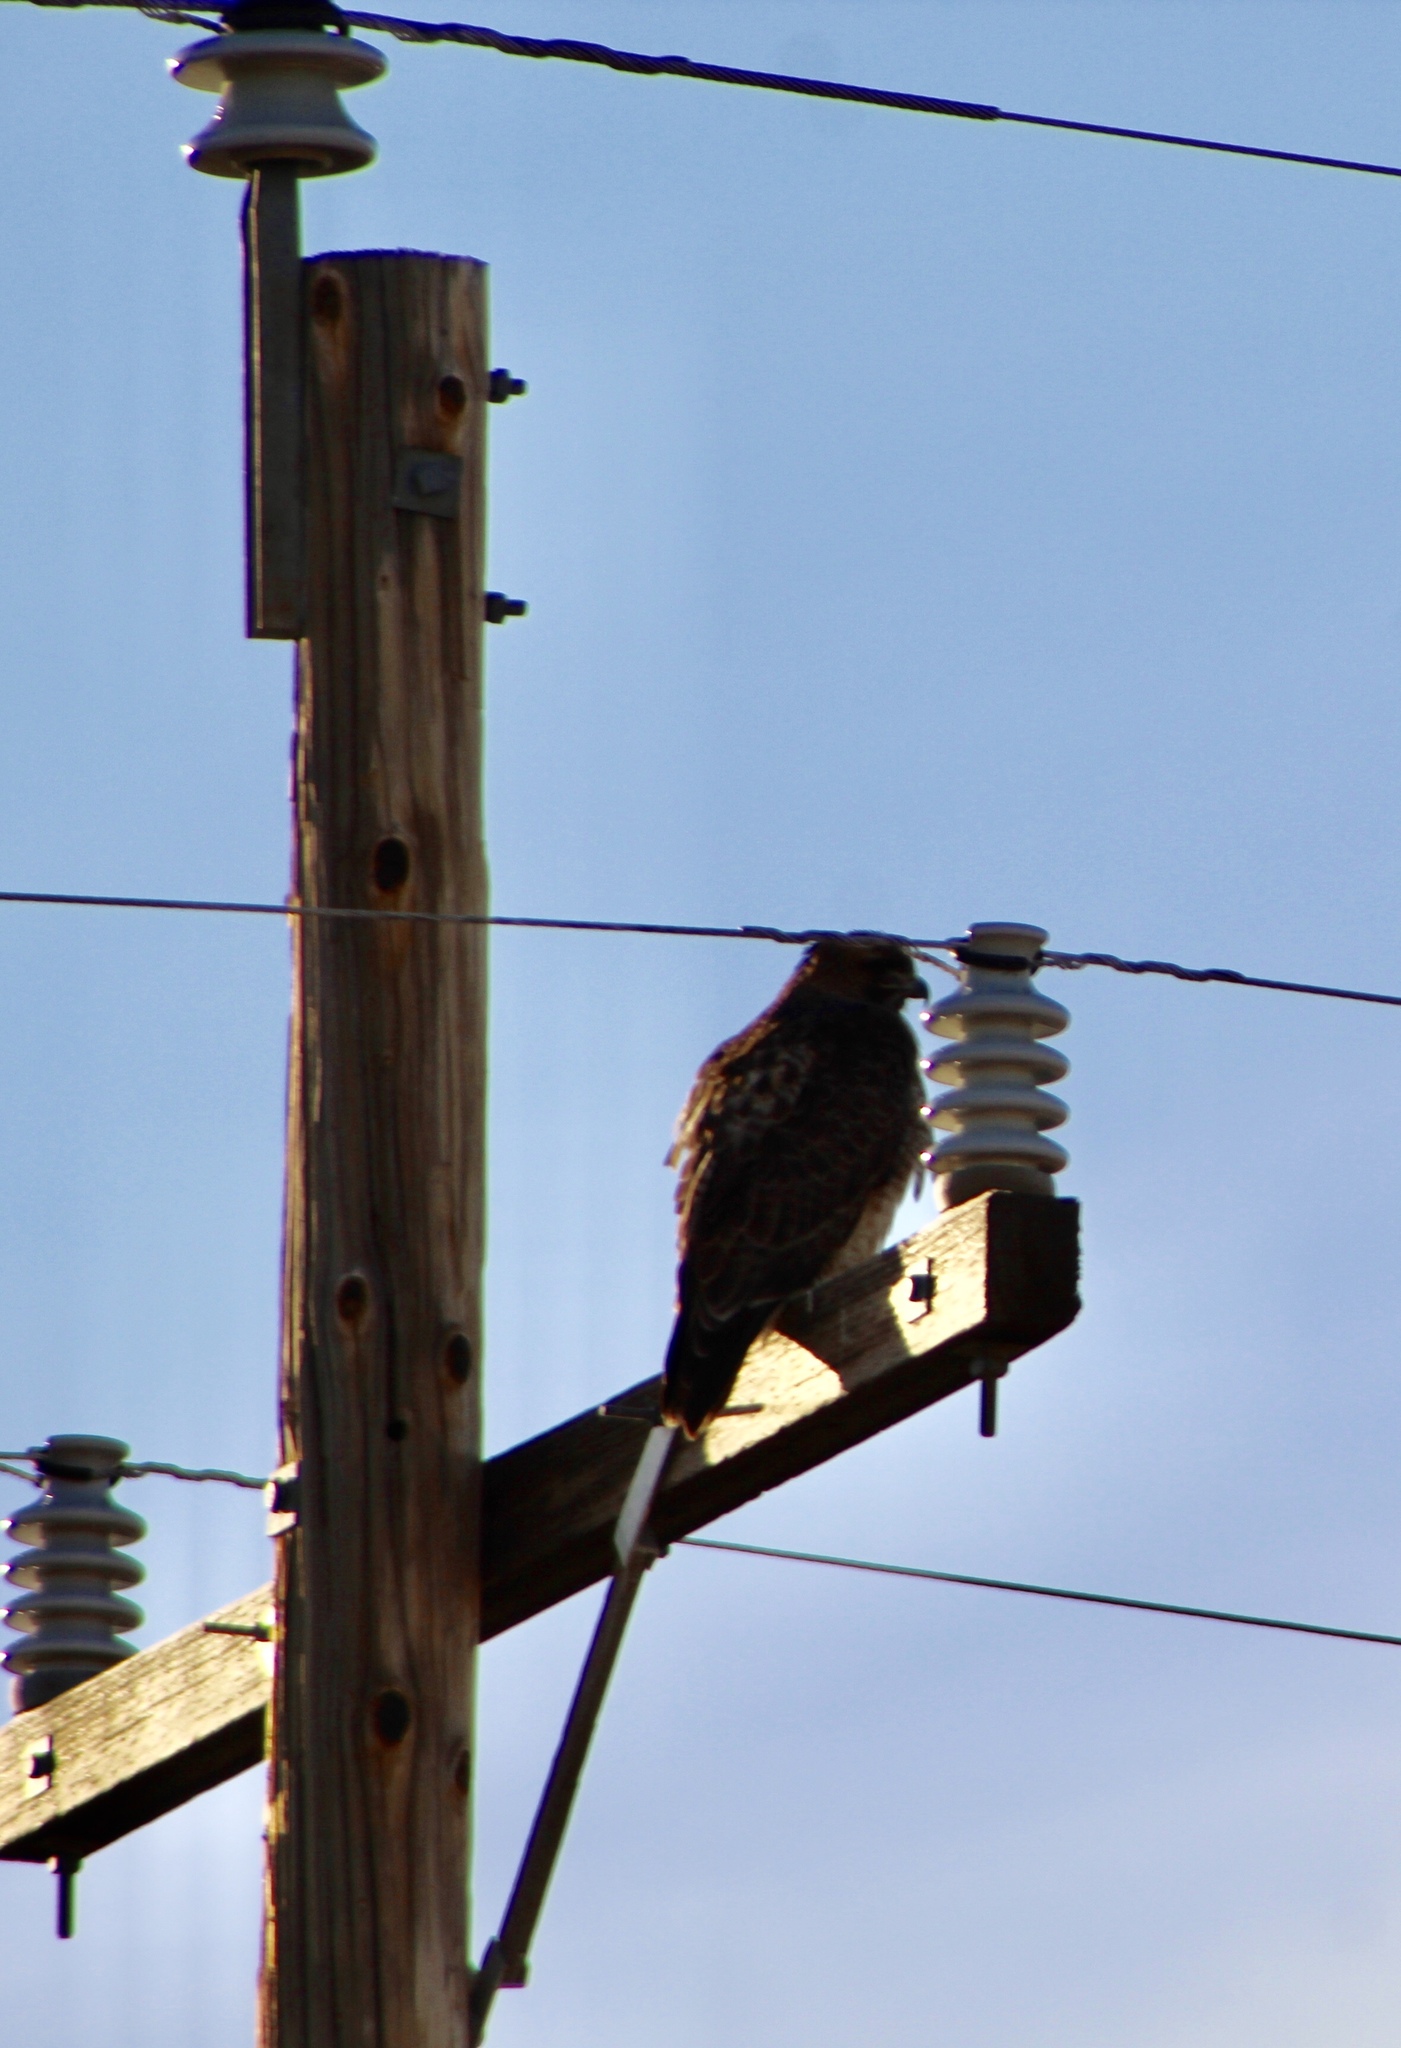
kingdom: Animalia
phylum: Chordata
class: Aves
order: Accipitriformes
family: Accipitridae
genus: Buteo
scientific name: Buteo jamaicensis
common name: Red-tailed hawk
